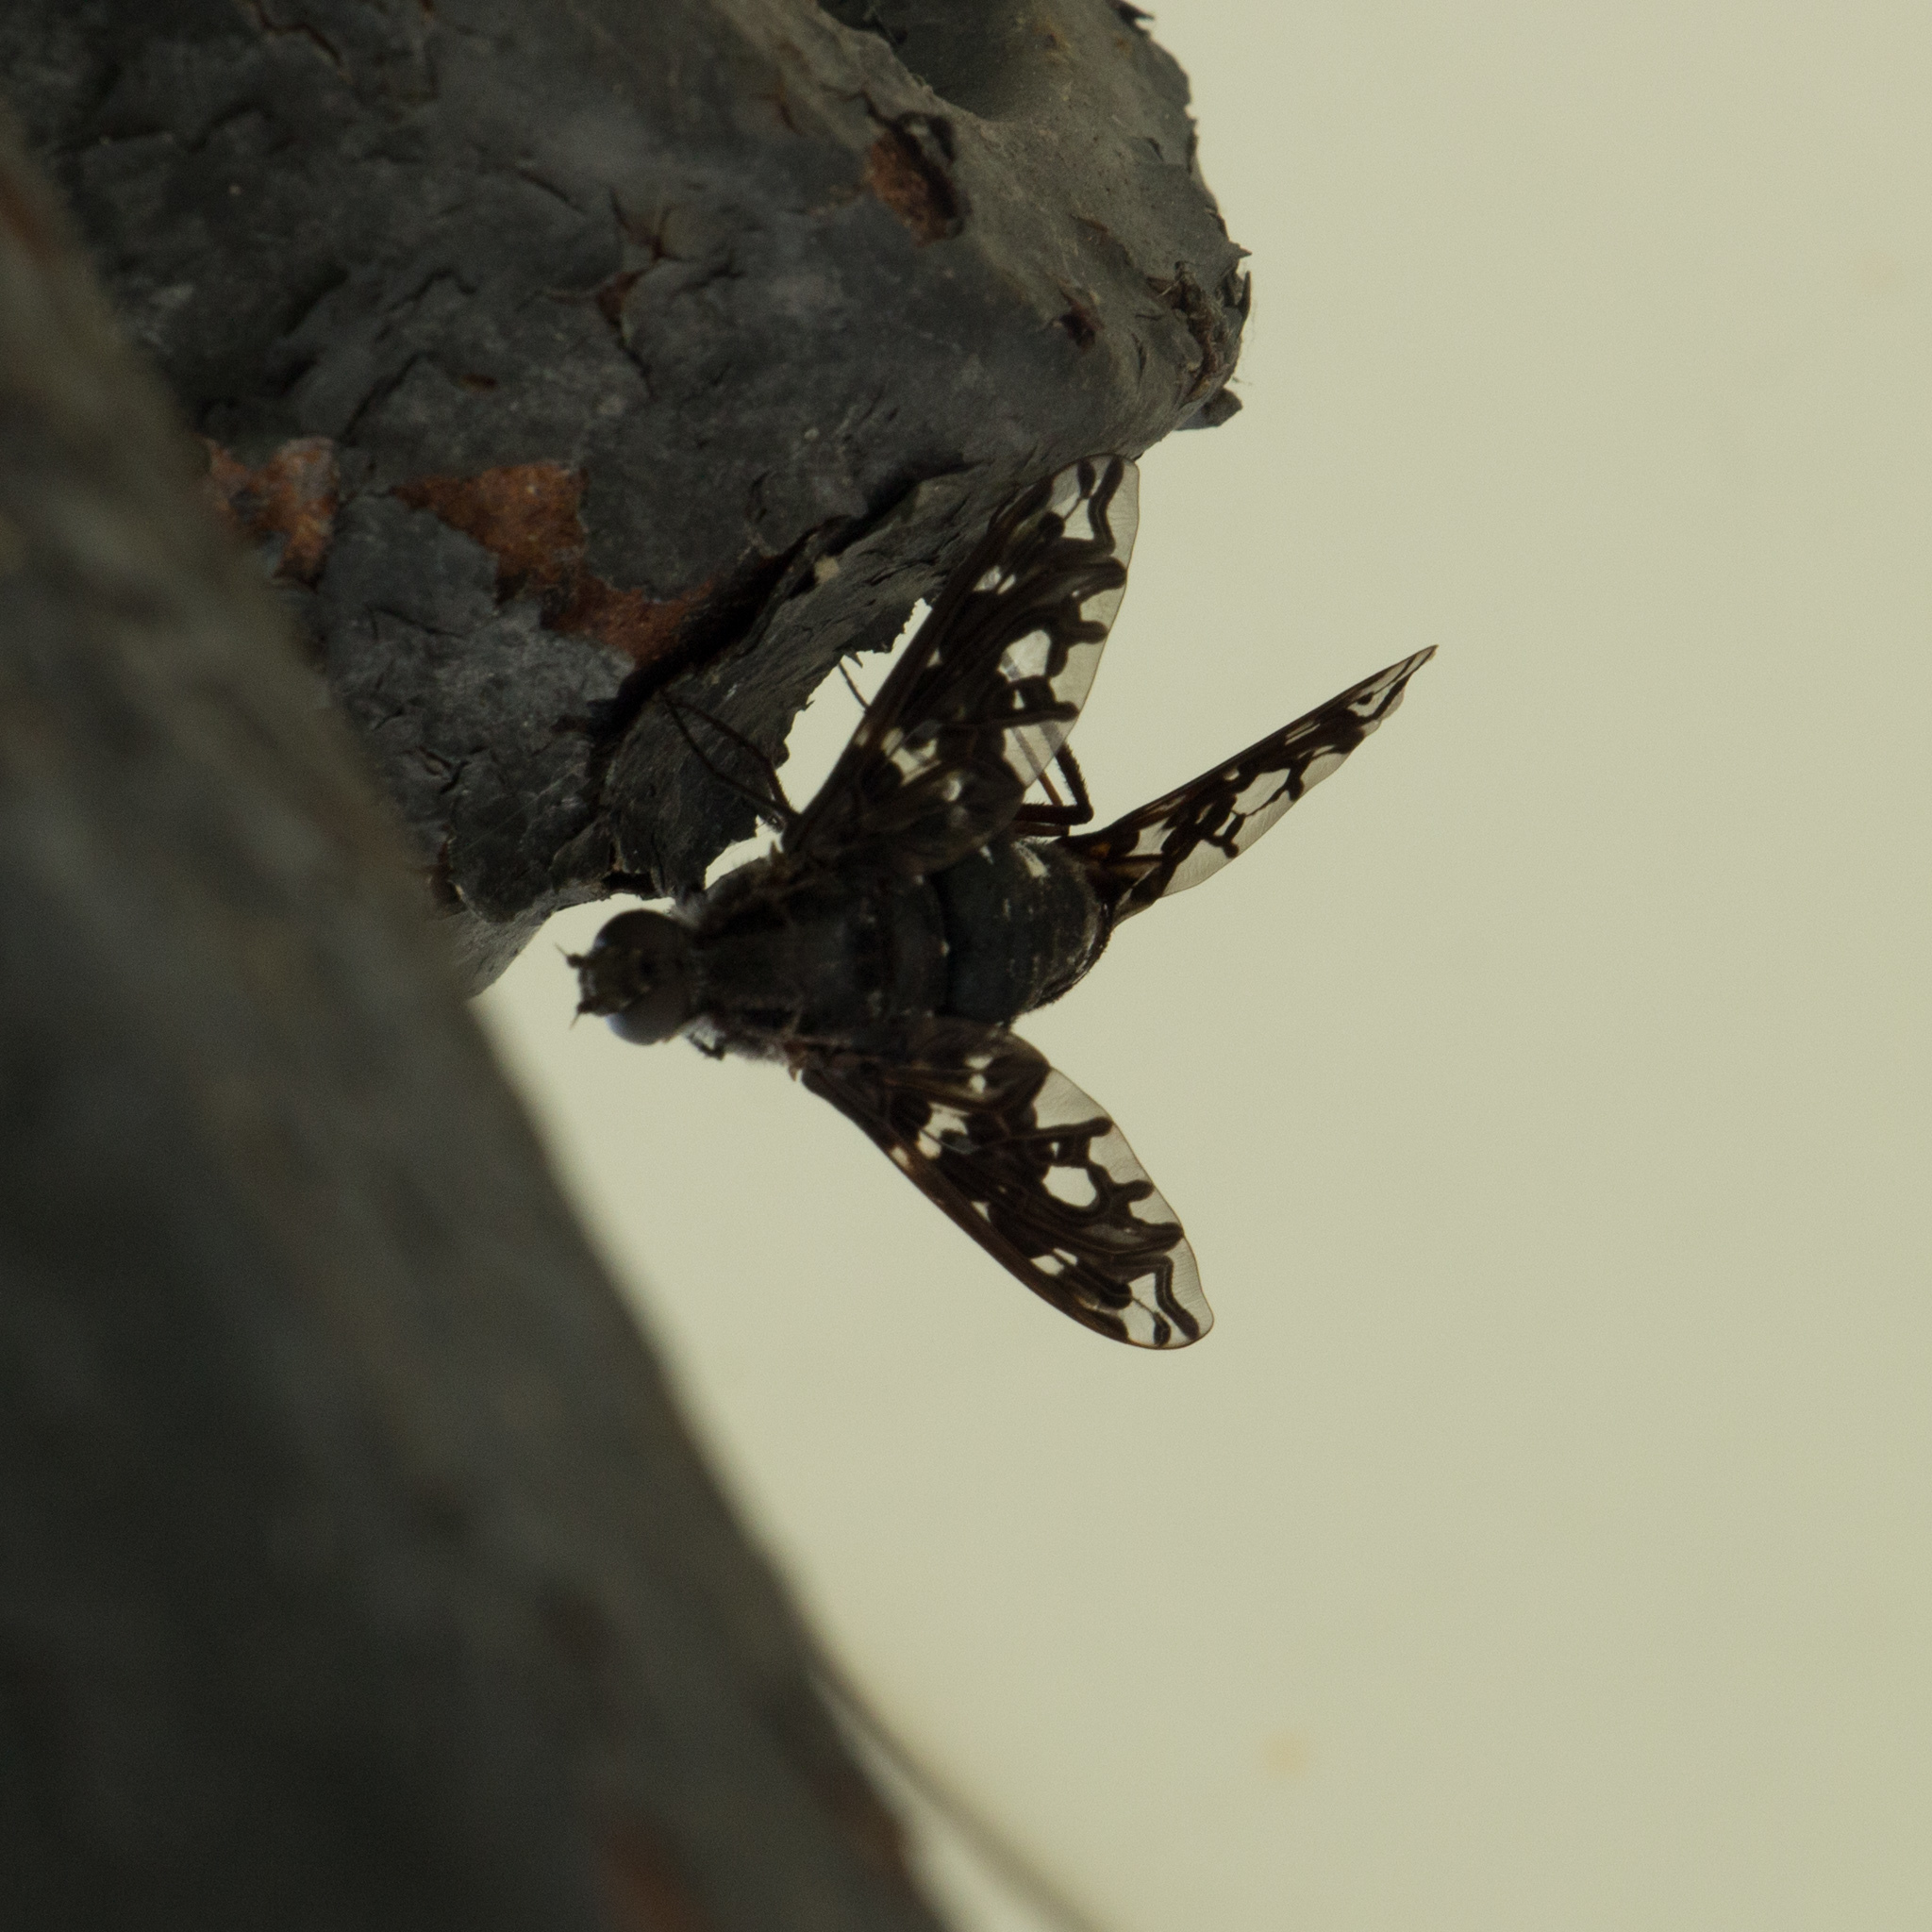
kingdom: Animalia
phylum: Arthropoda
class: Insecta
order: Diptera
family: Bombyliidae
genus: Xenox
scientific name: Xenox tigrinus
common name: Tiger bee fly
